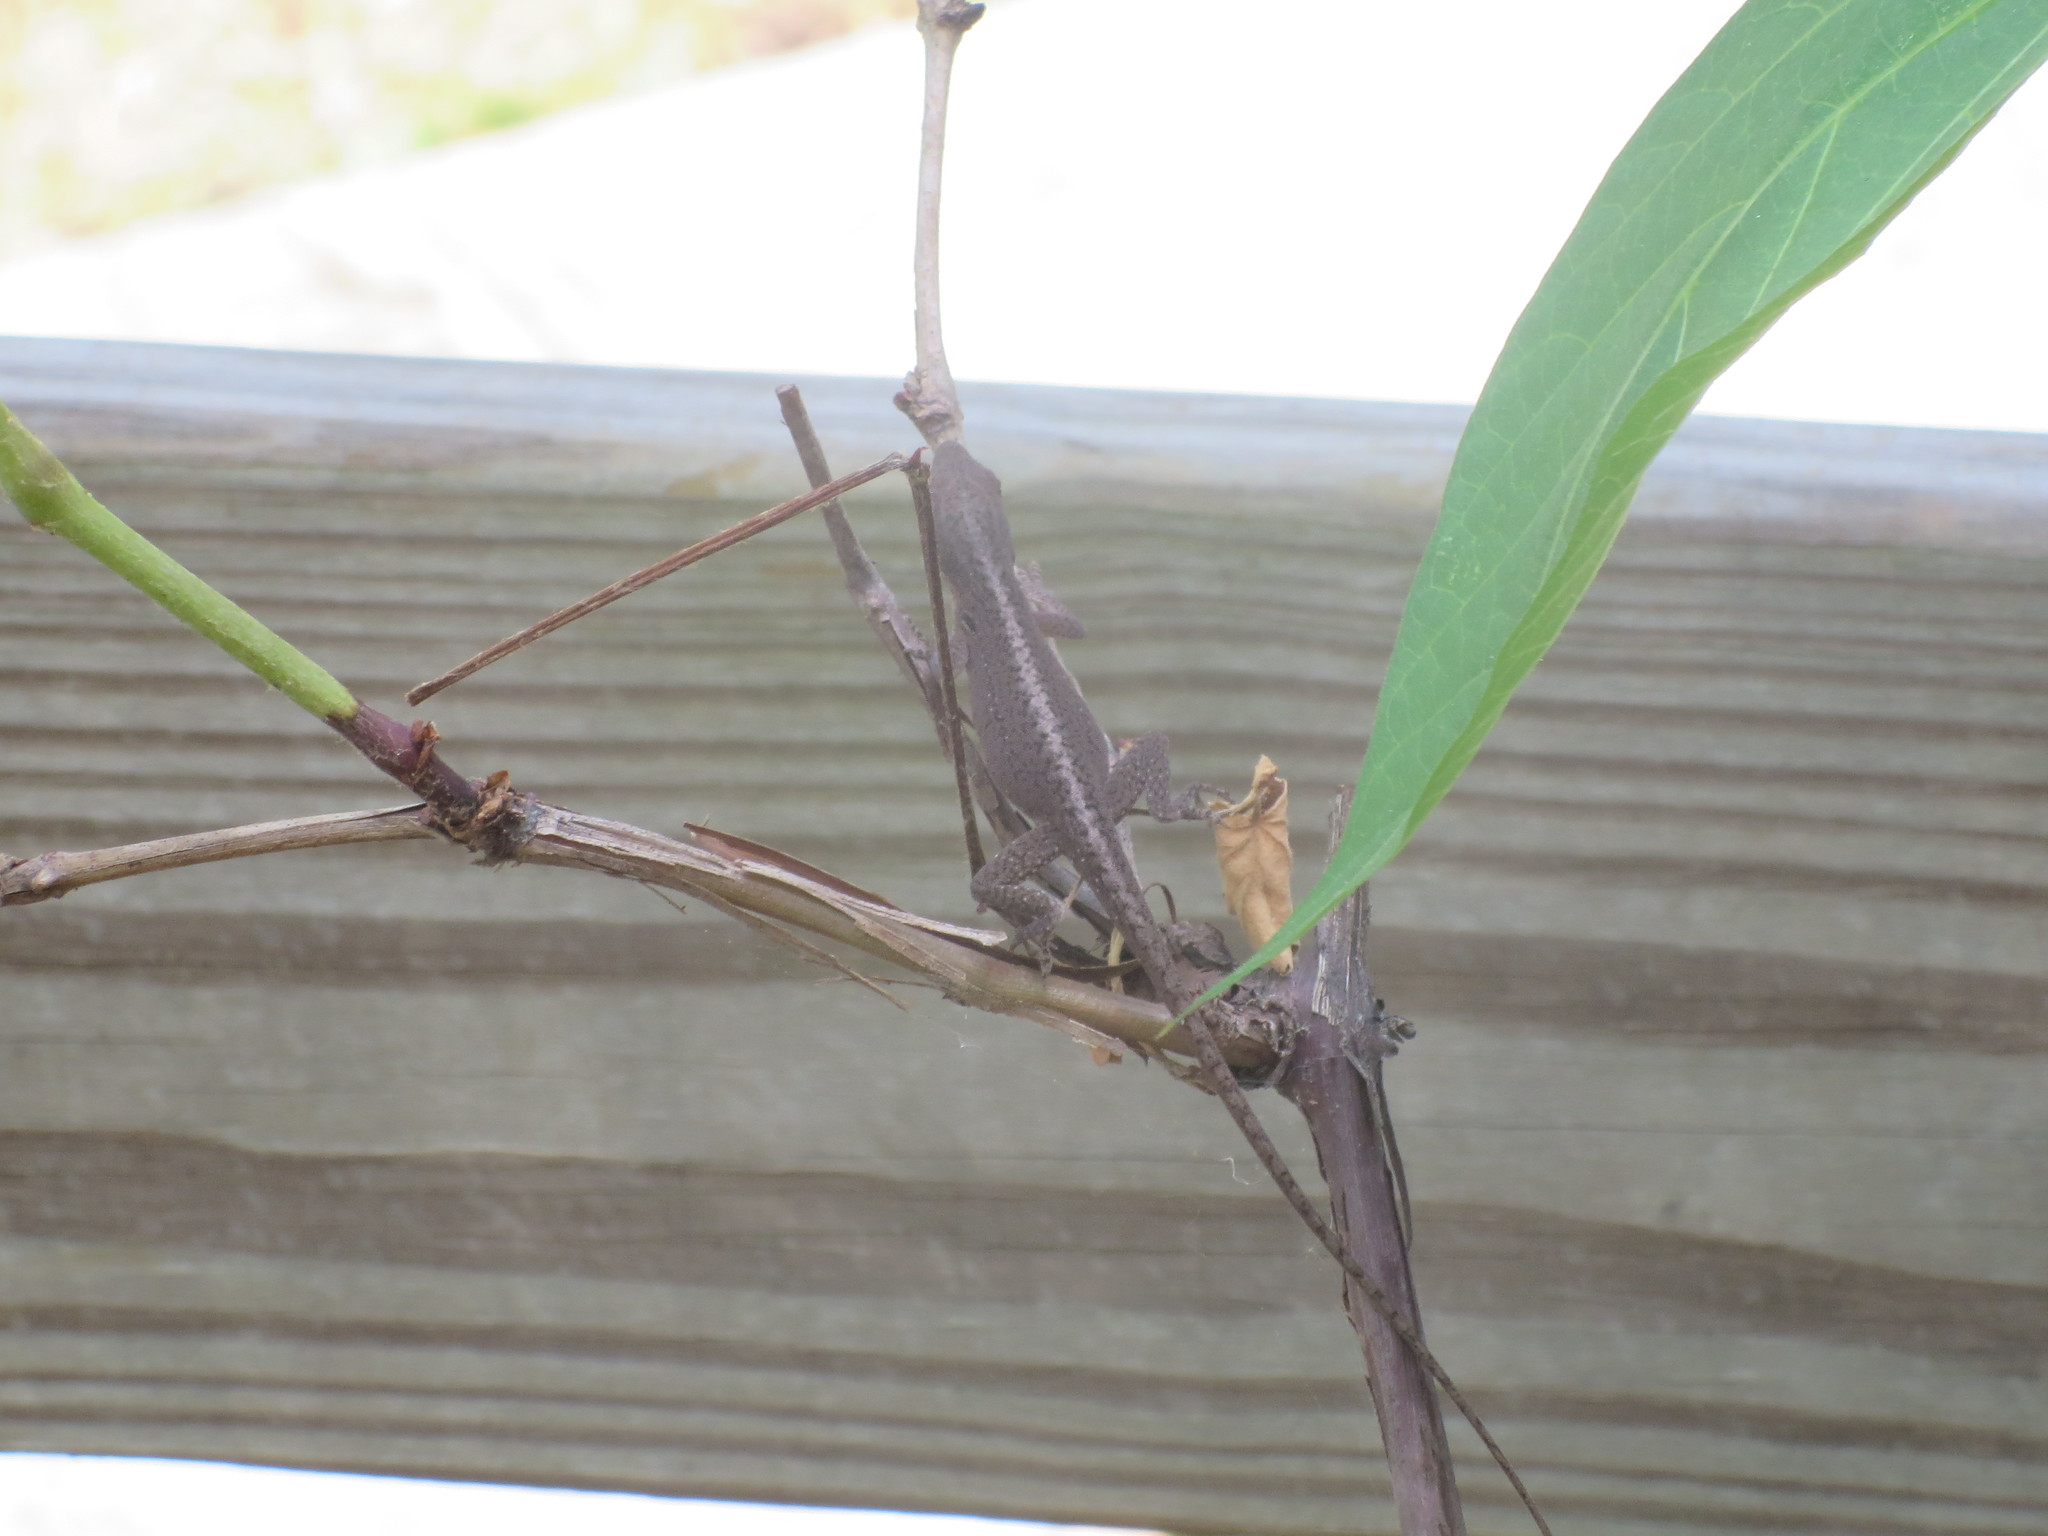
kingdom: Animalia
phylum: Chordata
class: Squamata
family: Dactyloidae
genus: Anolis
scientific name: Anolis carolinensis
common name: Green anole
